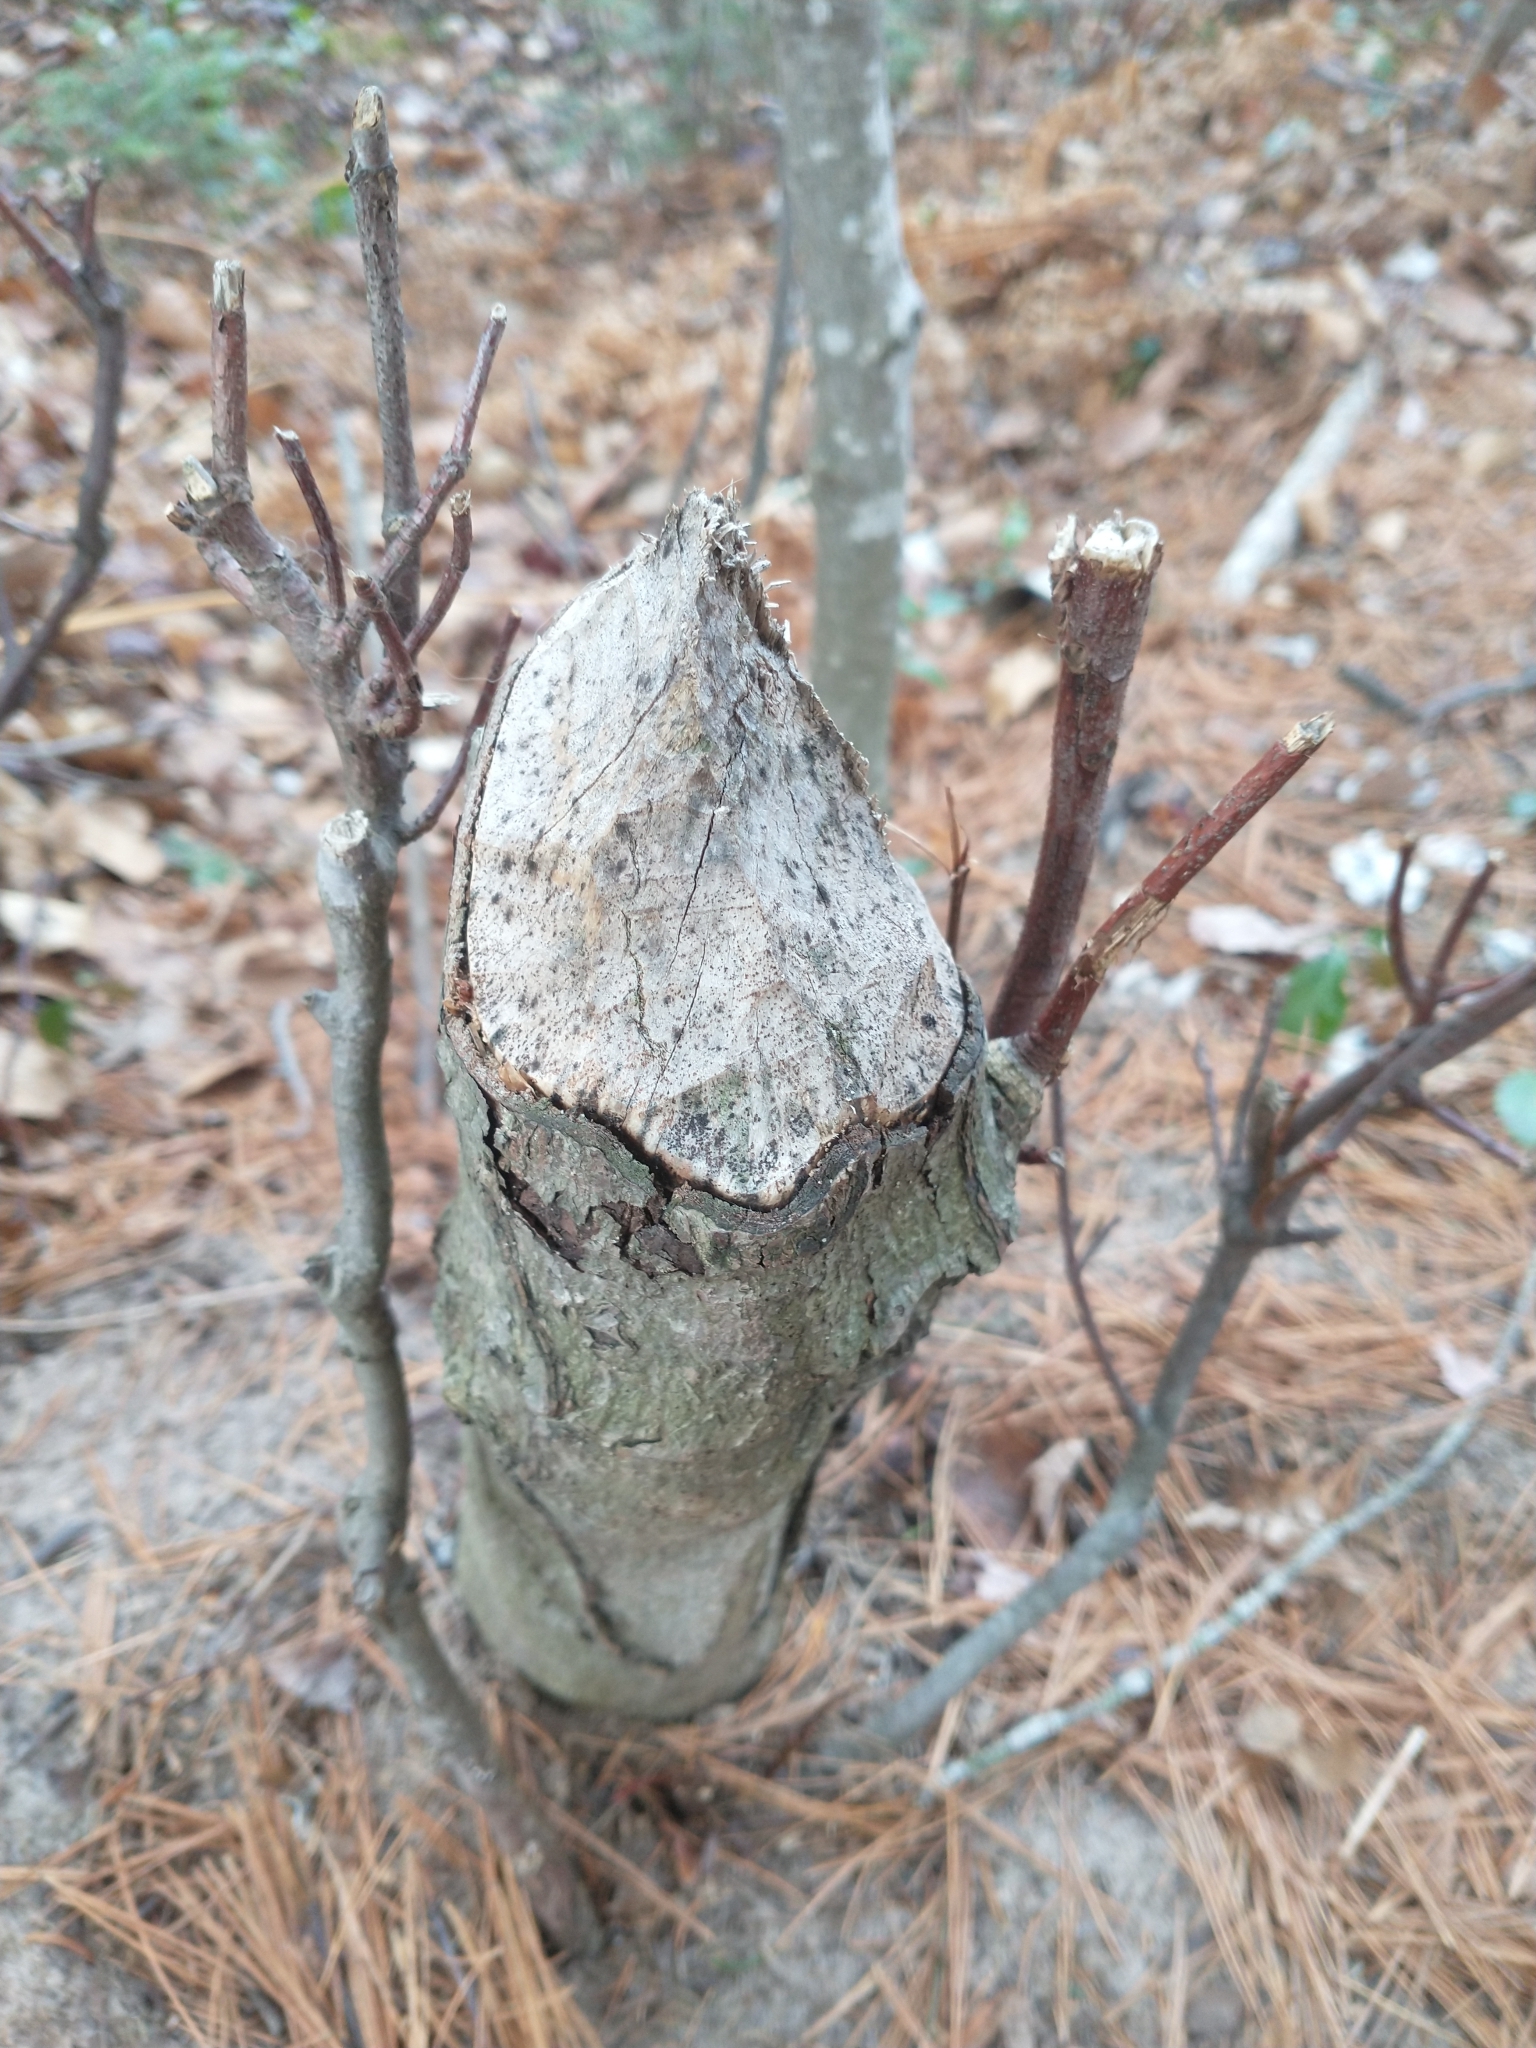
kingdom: Animalia
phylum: Chordata
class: Mammalia
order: Rodentia
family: Castoridae
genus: Castor
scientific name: Castor canadensis
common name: American beaver
